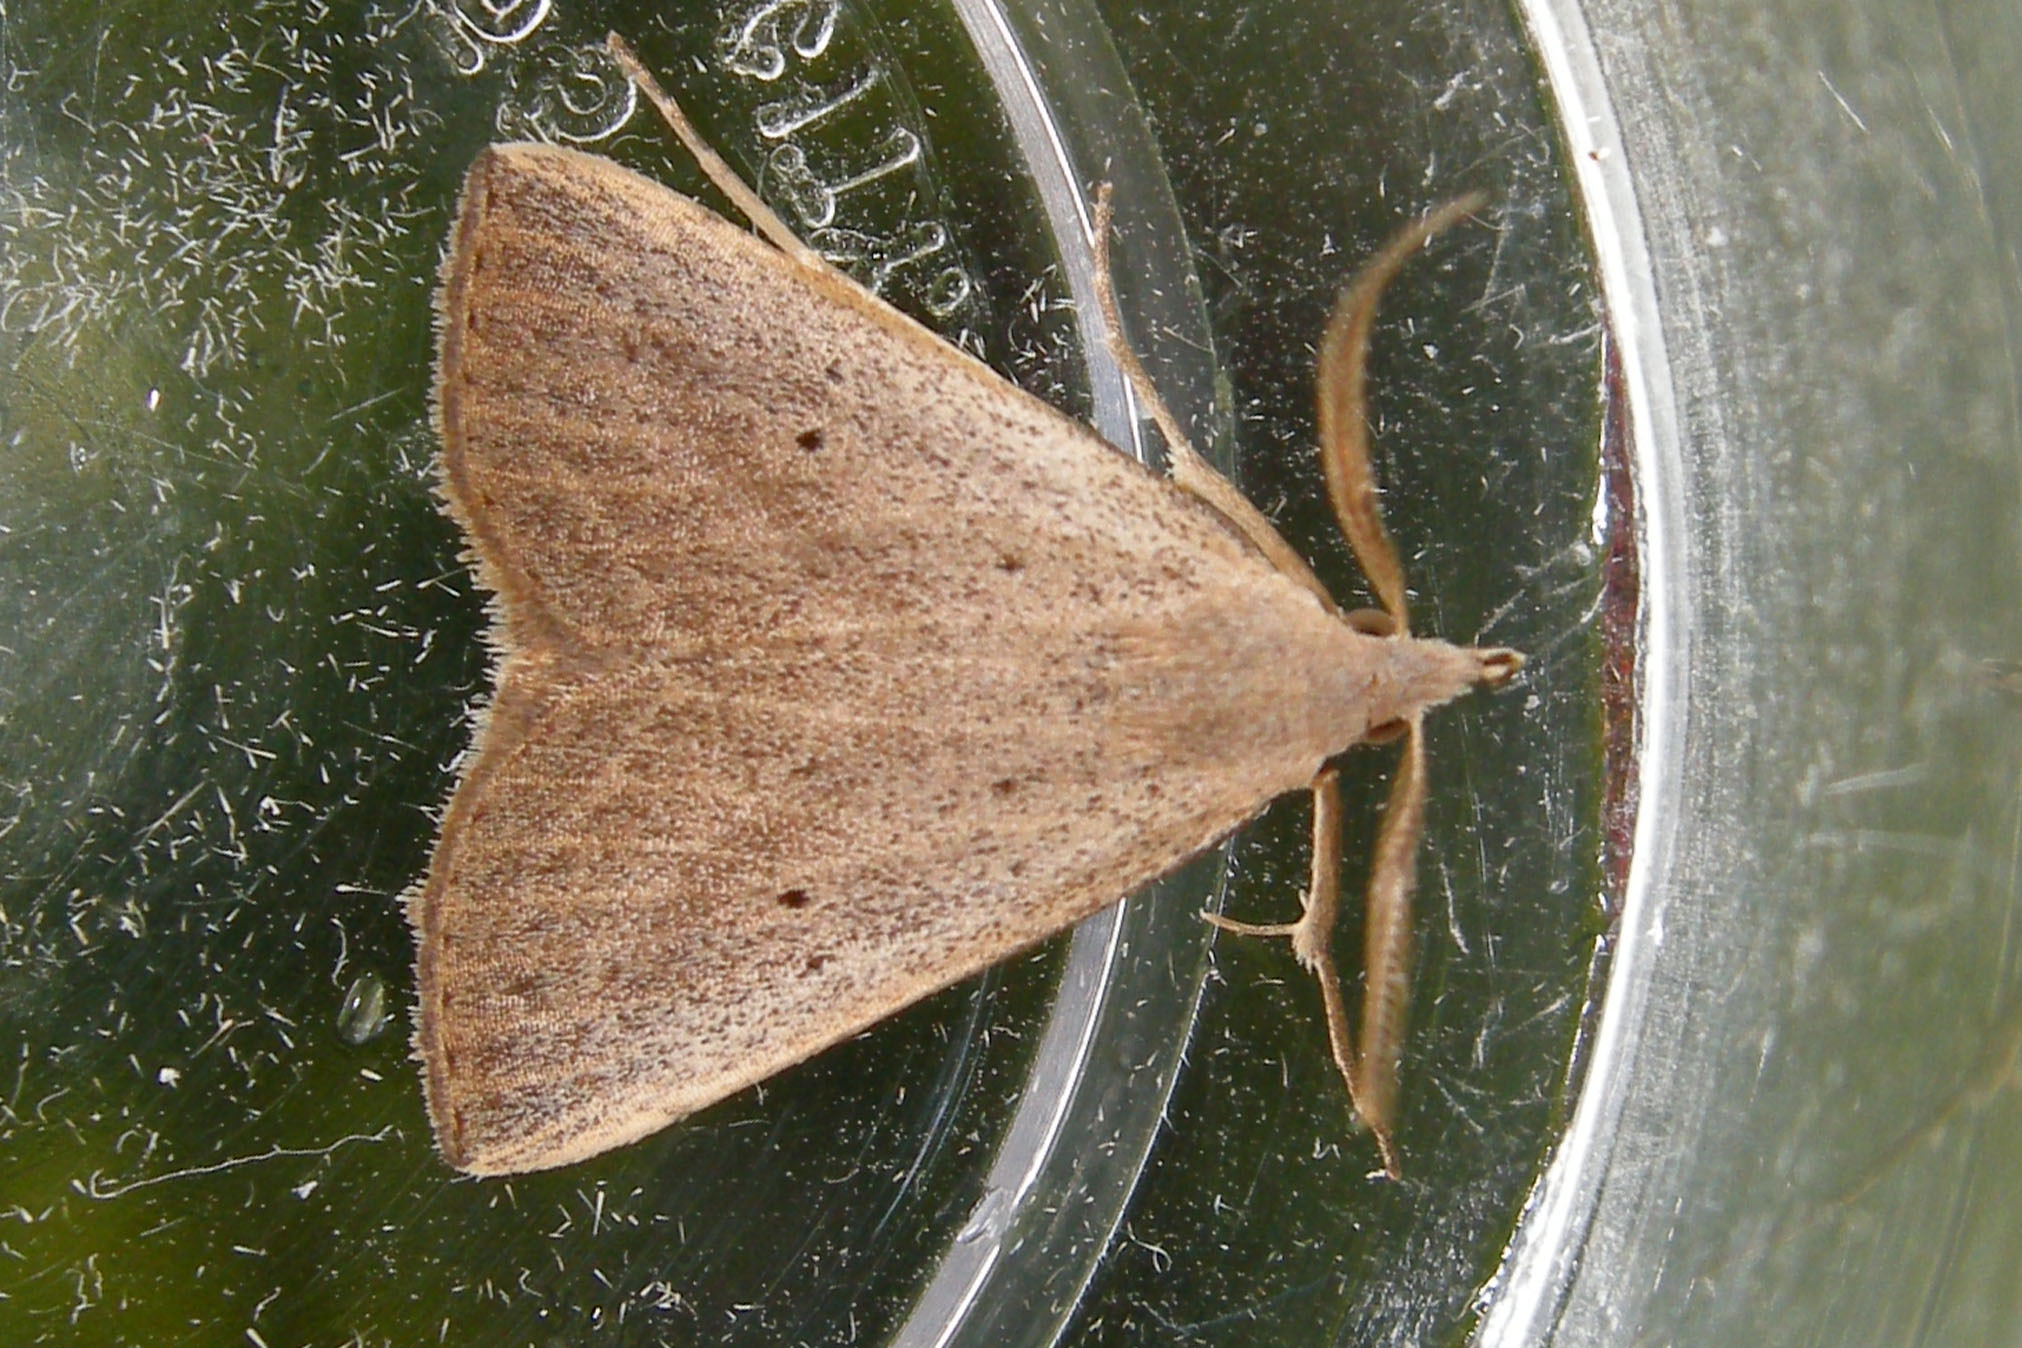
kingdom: Animalia
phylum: Arthropoda
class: Insecta
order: Lepidoptera
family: Erebidae
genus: Macrochilo
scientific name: Macrochilo louisiana
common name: Louisiana macrochilo
